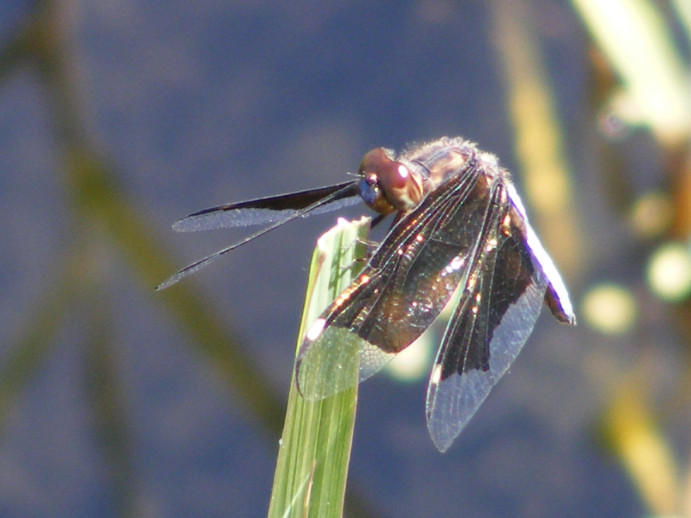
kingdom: Animalia
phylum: Arthropoda
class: Insecta
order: Odonata
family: Libellulidae
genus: Palpopleura
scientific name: Palpopleura lucia
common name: Lucia widow
